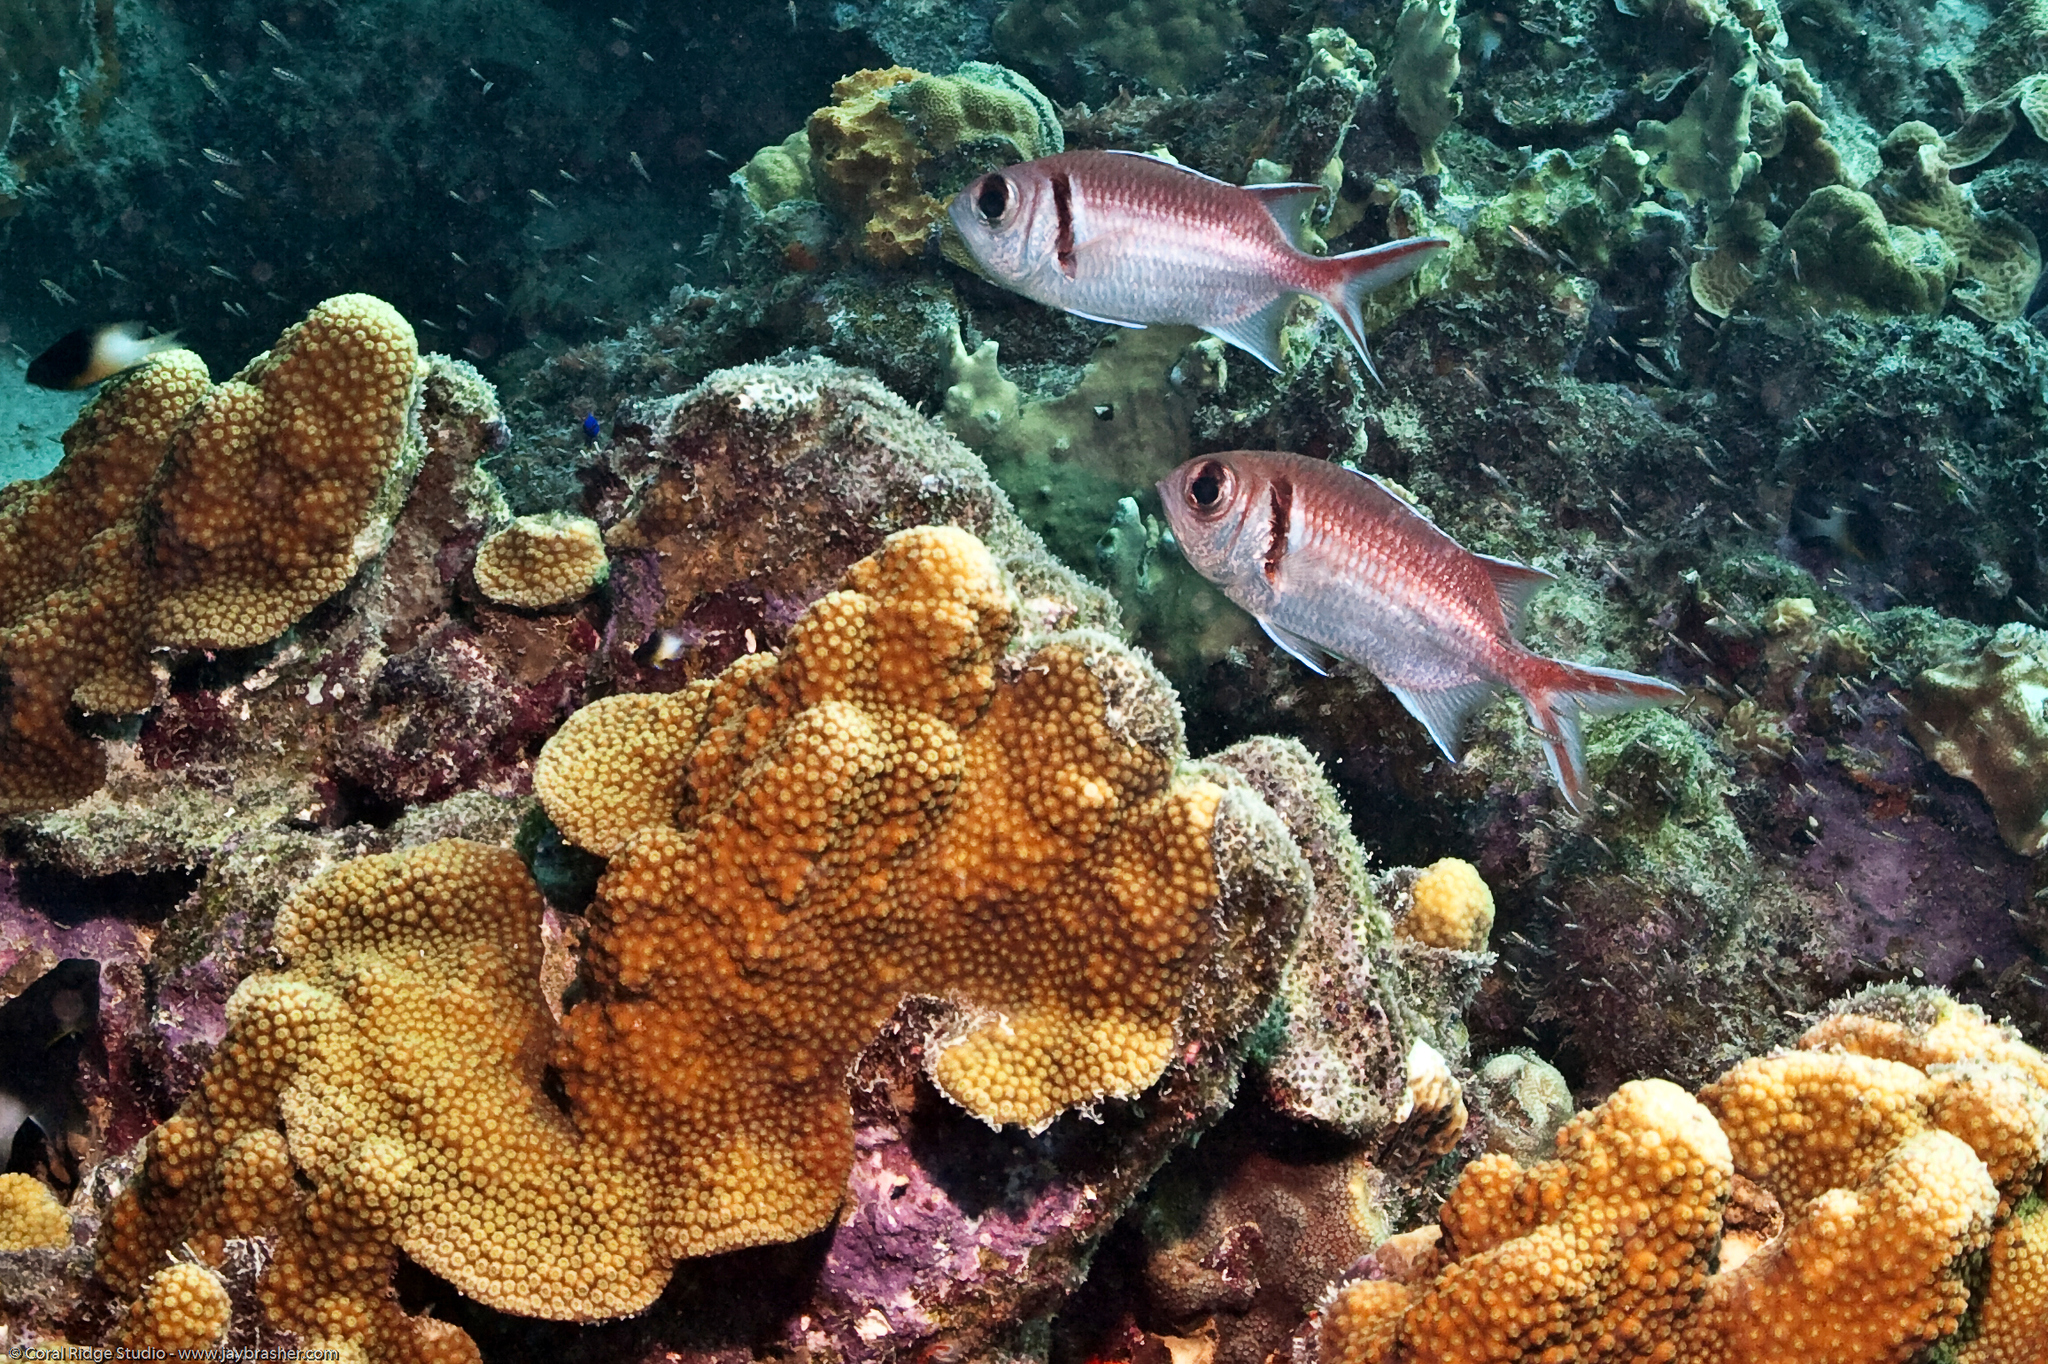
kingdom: Animalia
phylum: Chordata
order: Beryciformes
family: Holocentridae
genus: Myripristis
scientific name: Myripristis jacobus
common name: Blackbar soldierfish
